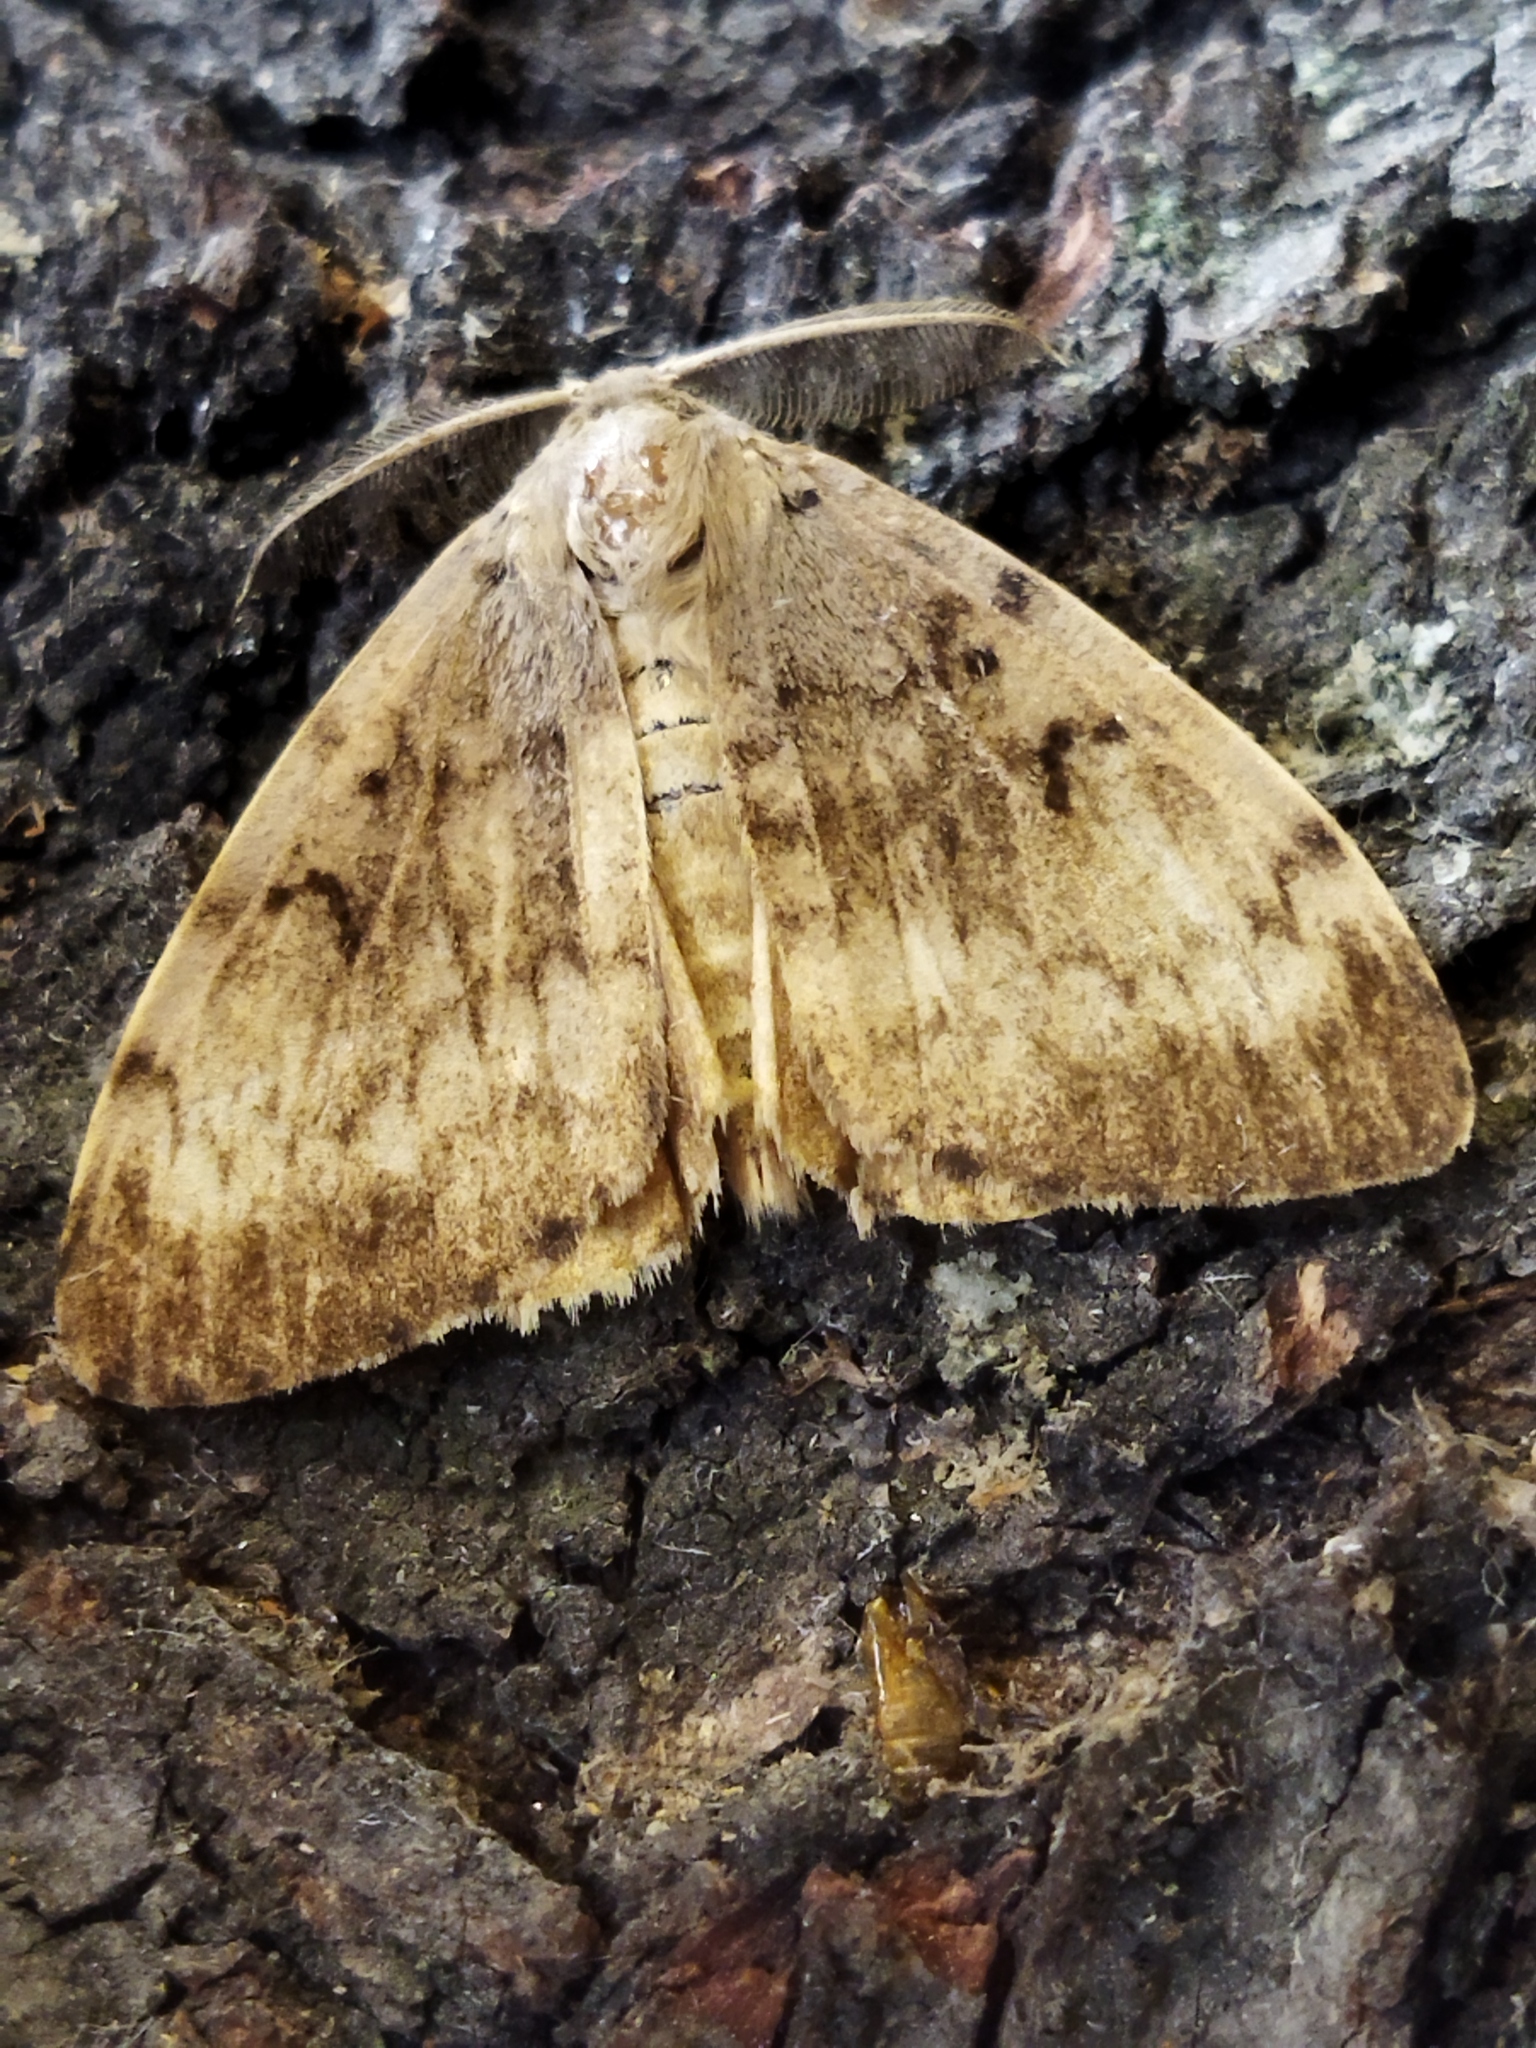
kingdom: Animalia
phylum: Arthropoda
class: Insecta
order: Lepidoptera
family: Erebidae
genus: Lymantria
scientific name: Lymantria dispar
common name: Gypsy moth
